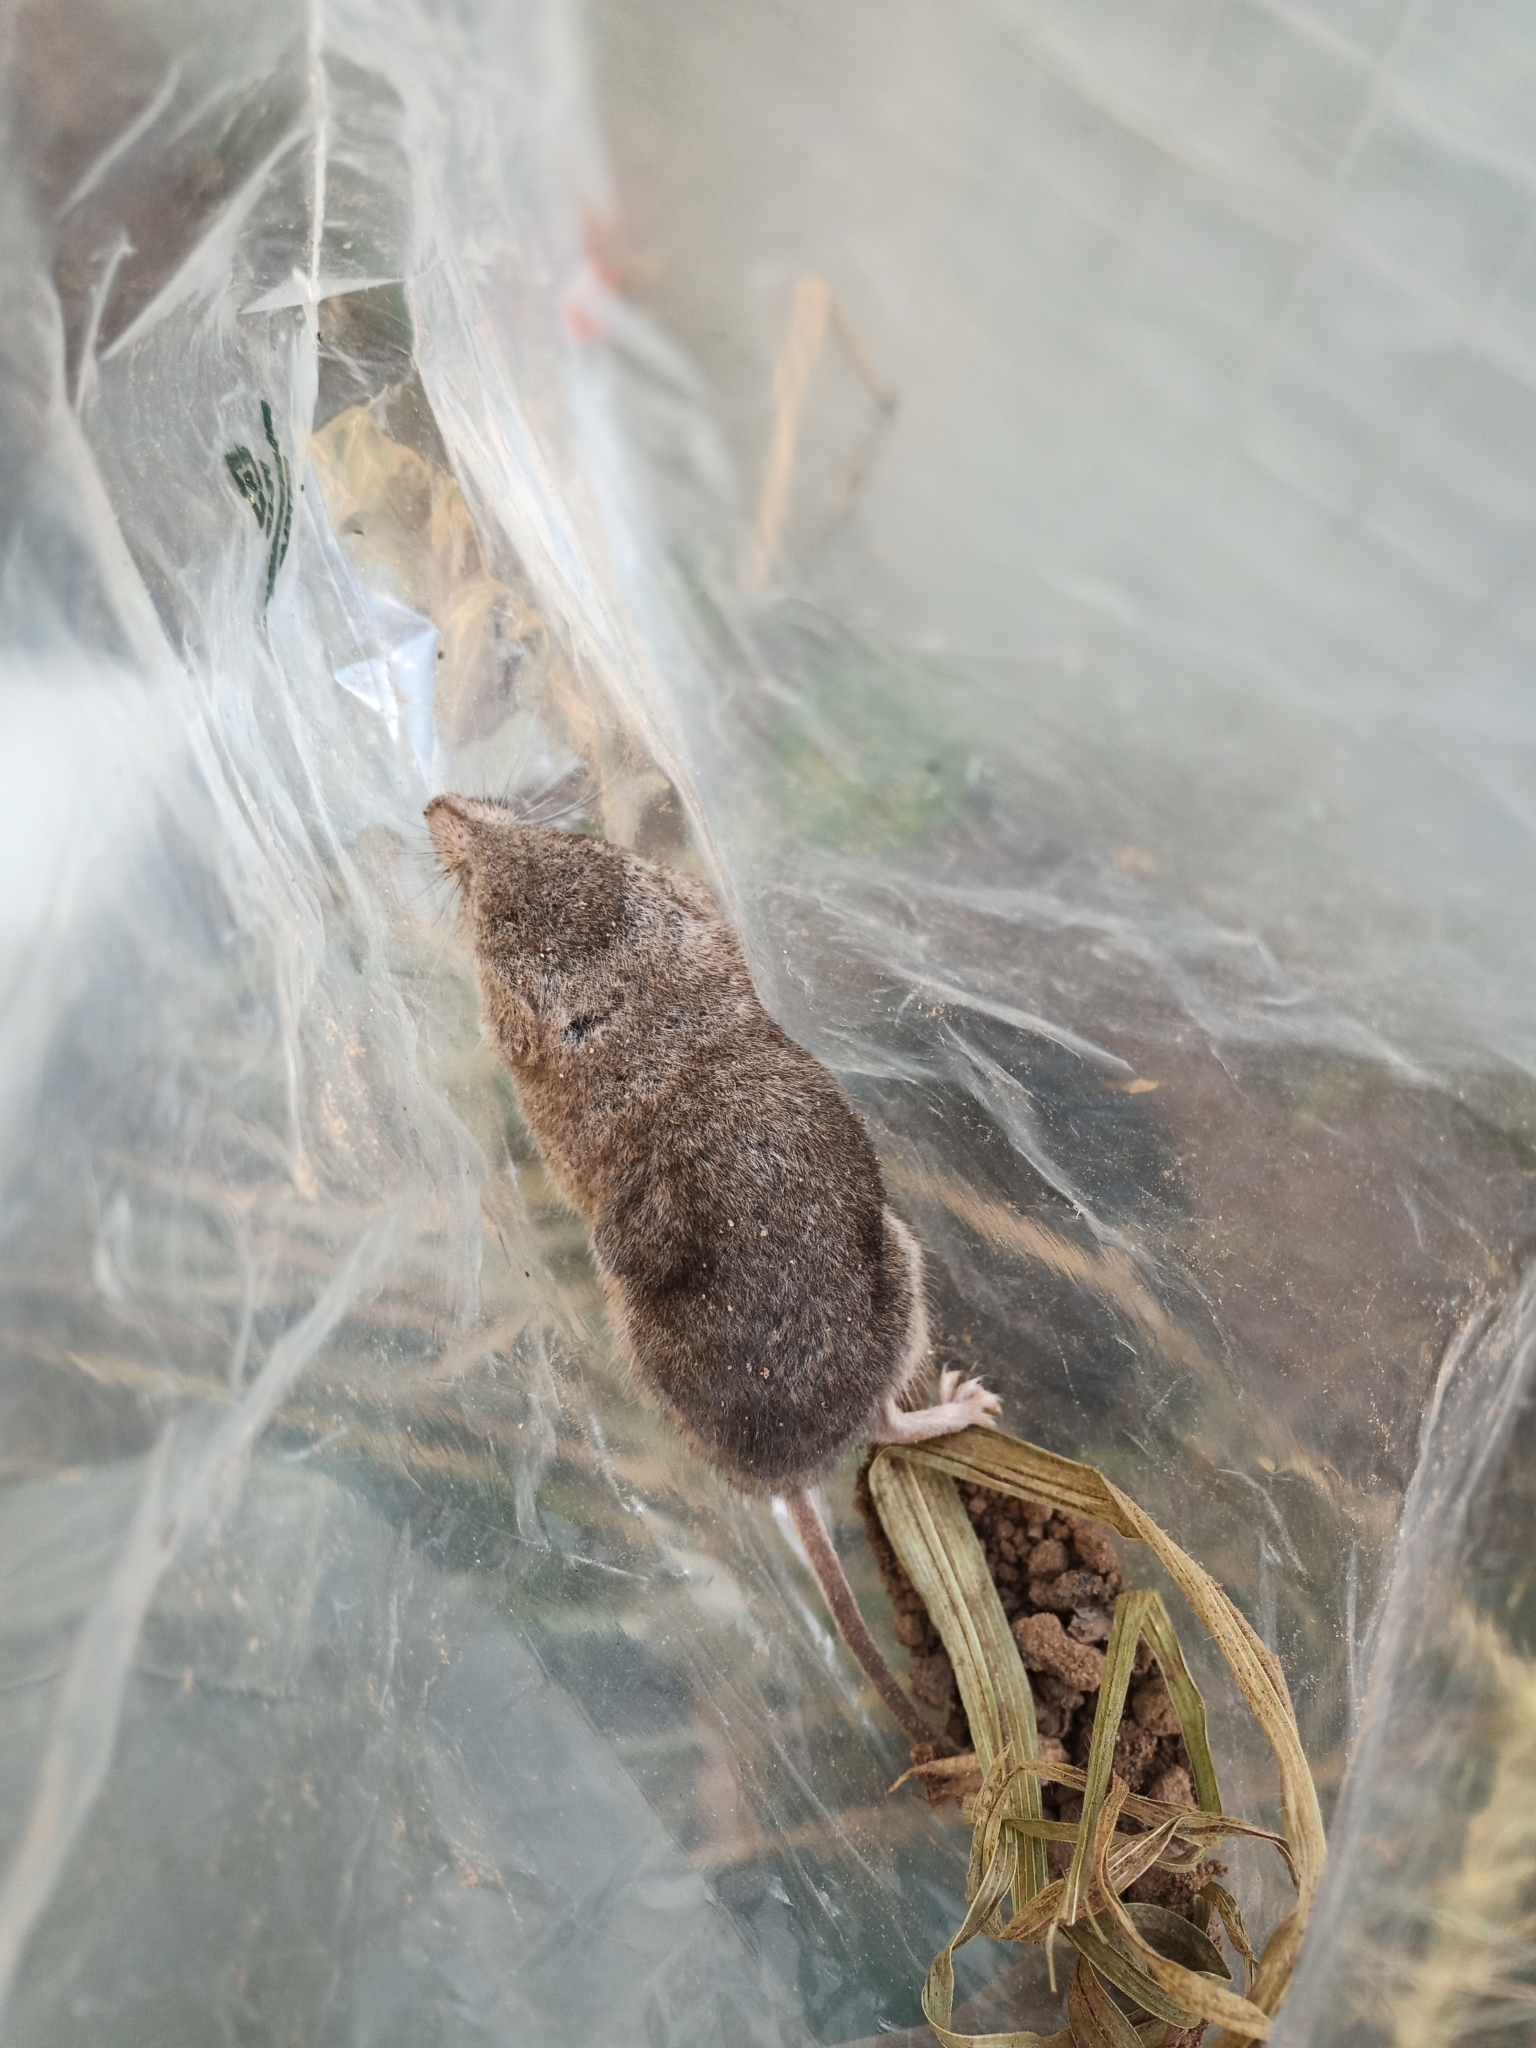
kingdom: Animalia
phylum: Chordata
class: Mammalia
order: Soricomorpha
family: Soricidae
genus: Myosorex
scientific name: Myosorex varius
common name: Forest shrew
